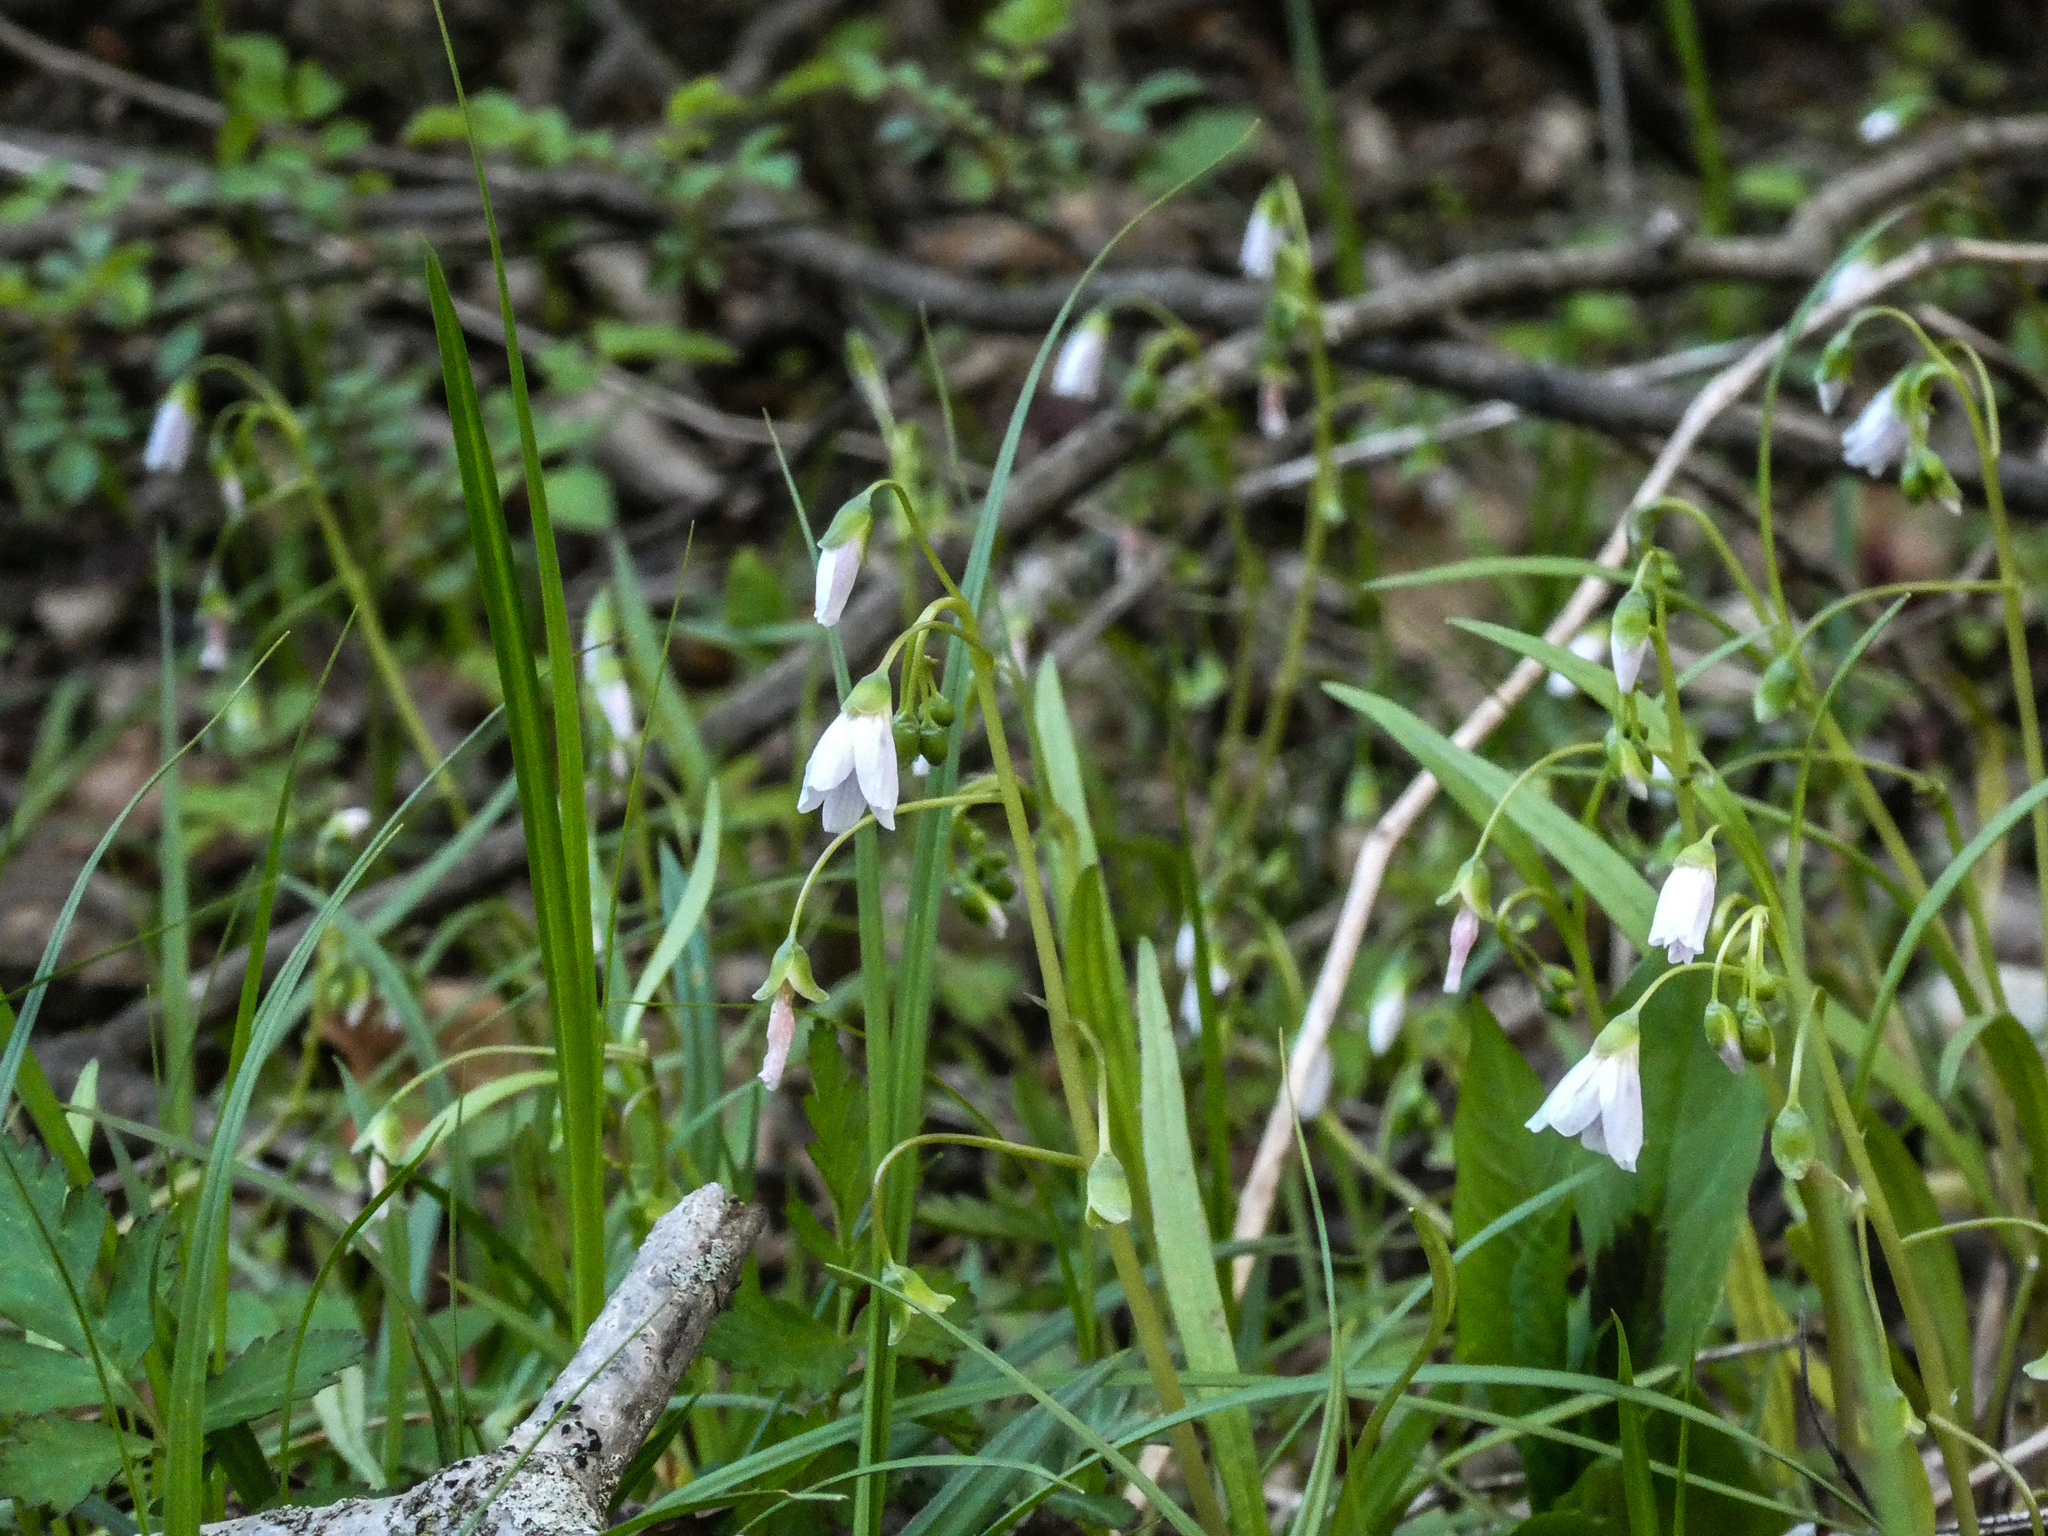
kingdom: Plantae
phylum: Tracheophyta
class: Magnoliopsida
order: Caryophyllales
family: Montiaceae
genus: Claytonia
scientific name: Claytonia virginica
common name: Virginia springbeauty
